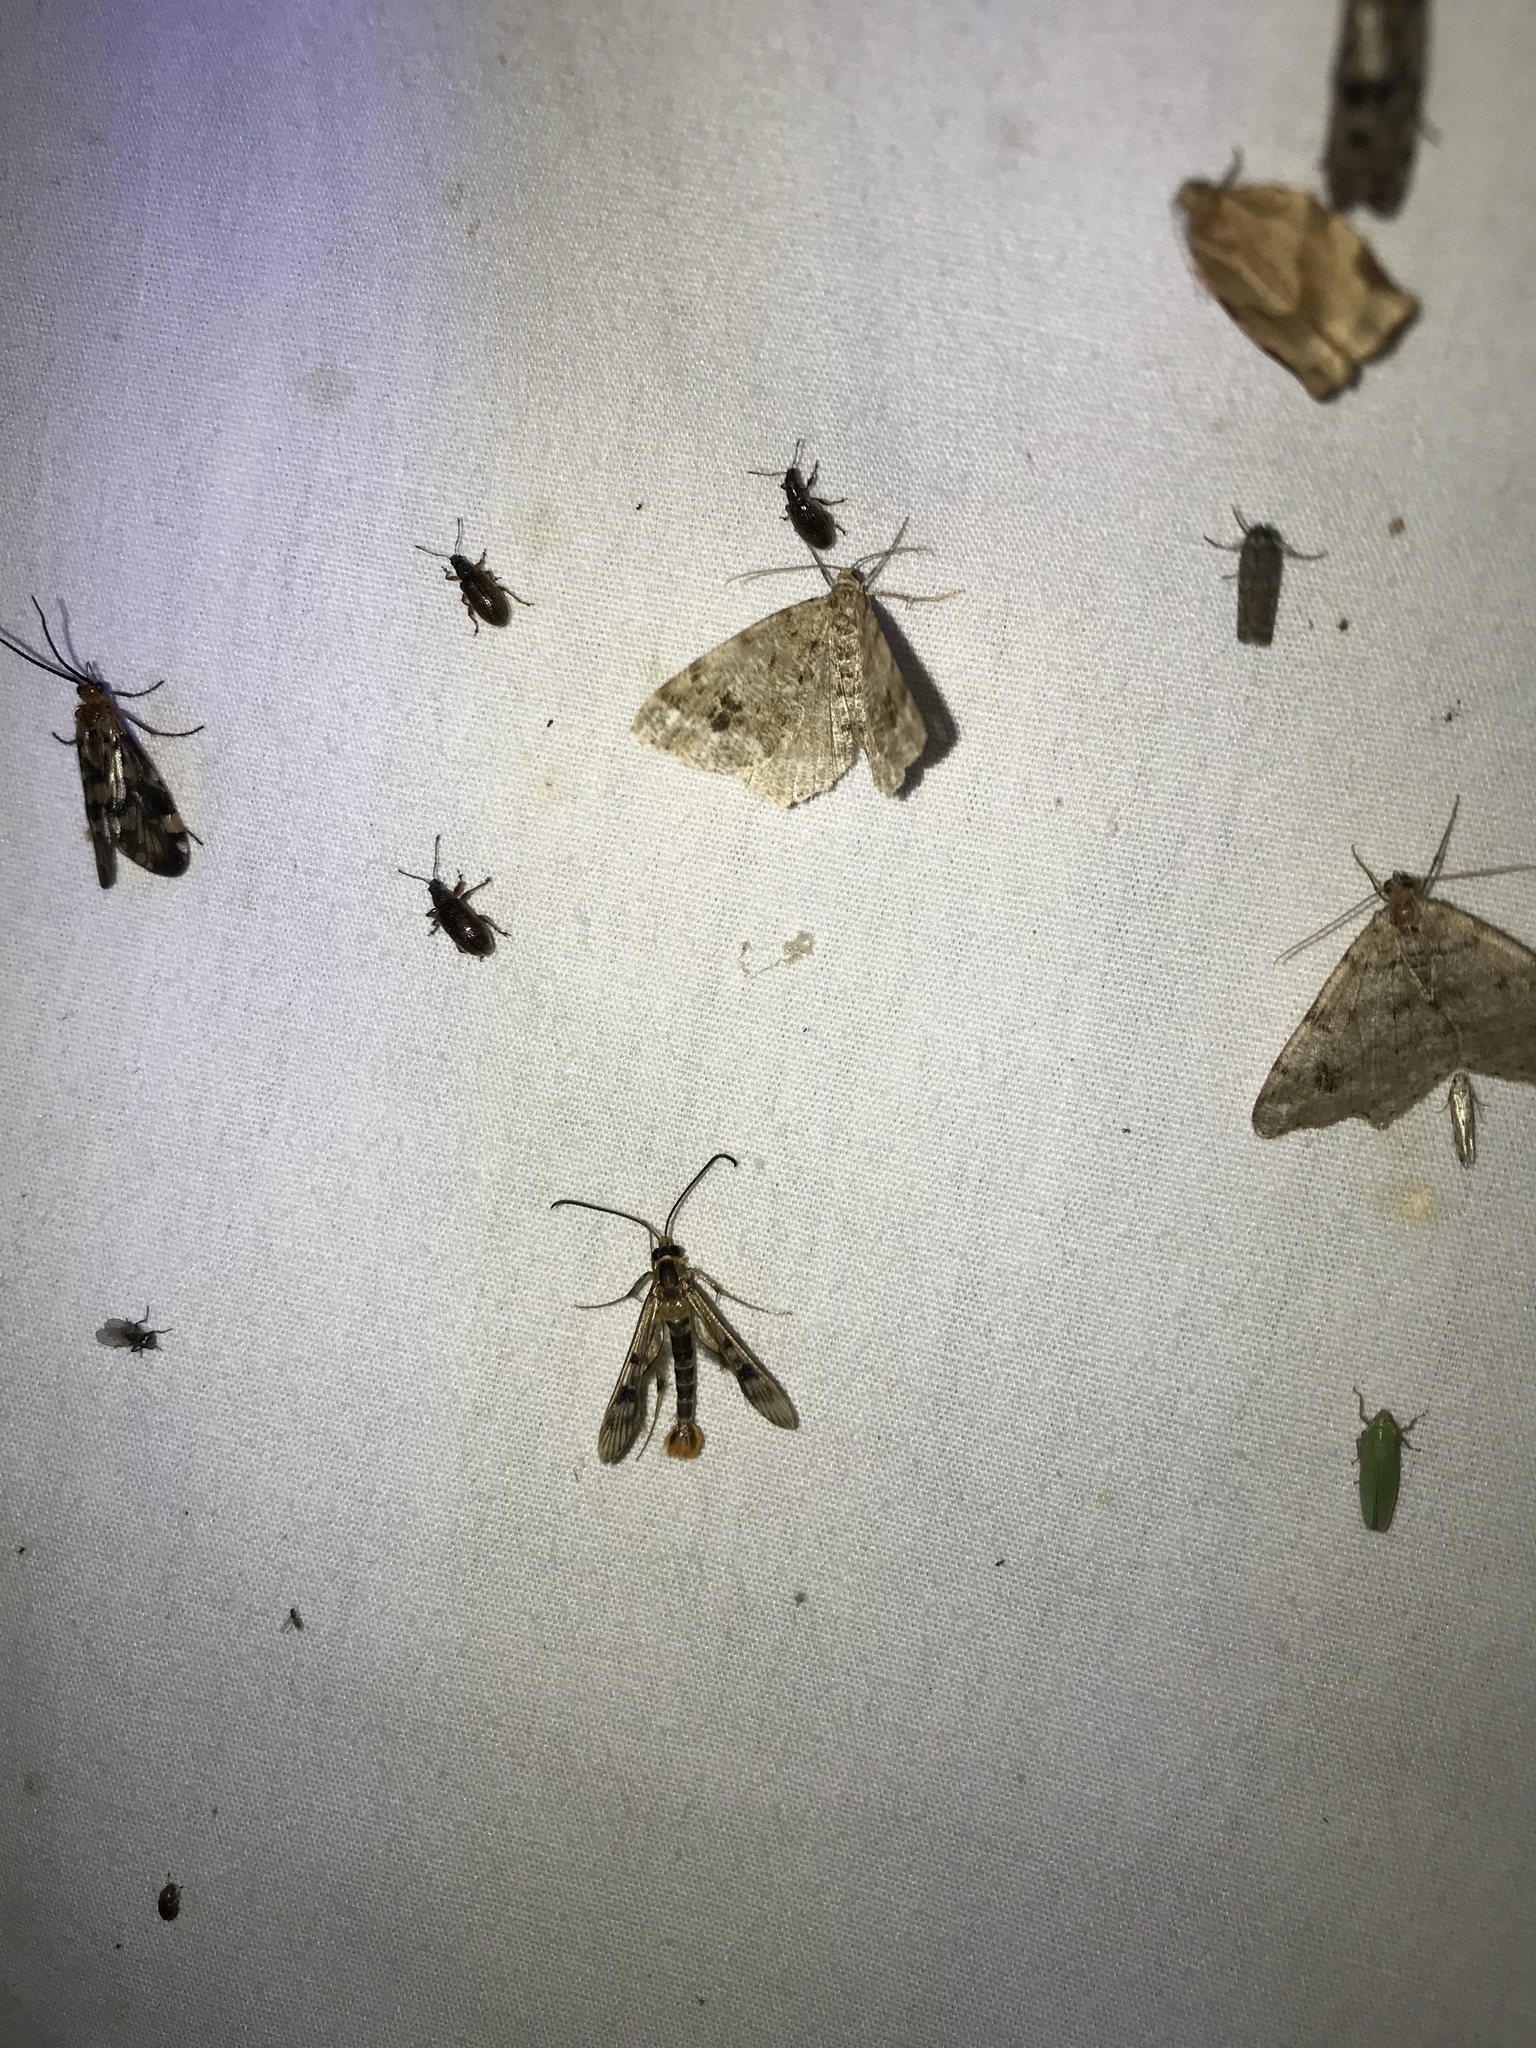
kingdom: Animalia
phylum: Arthropoda
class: Insecta
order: Lepidoptera
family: Sesiidae
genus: Synanthedon
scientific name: Synanthedon acerni
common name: Maple callus borer moth
